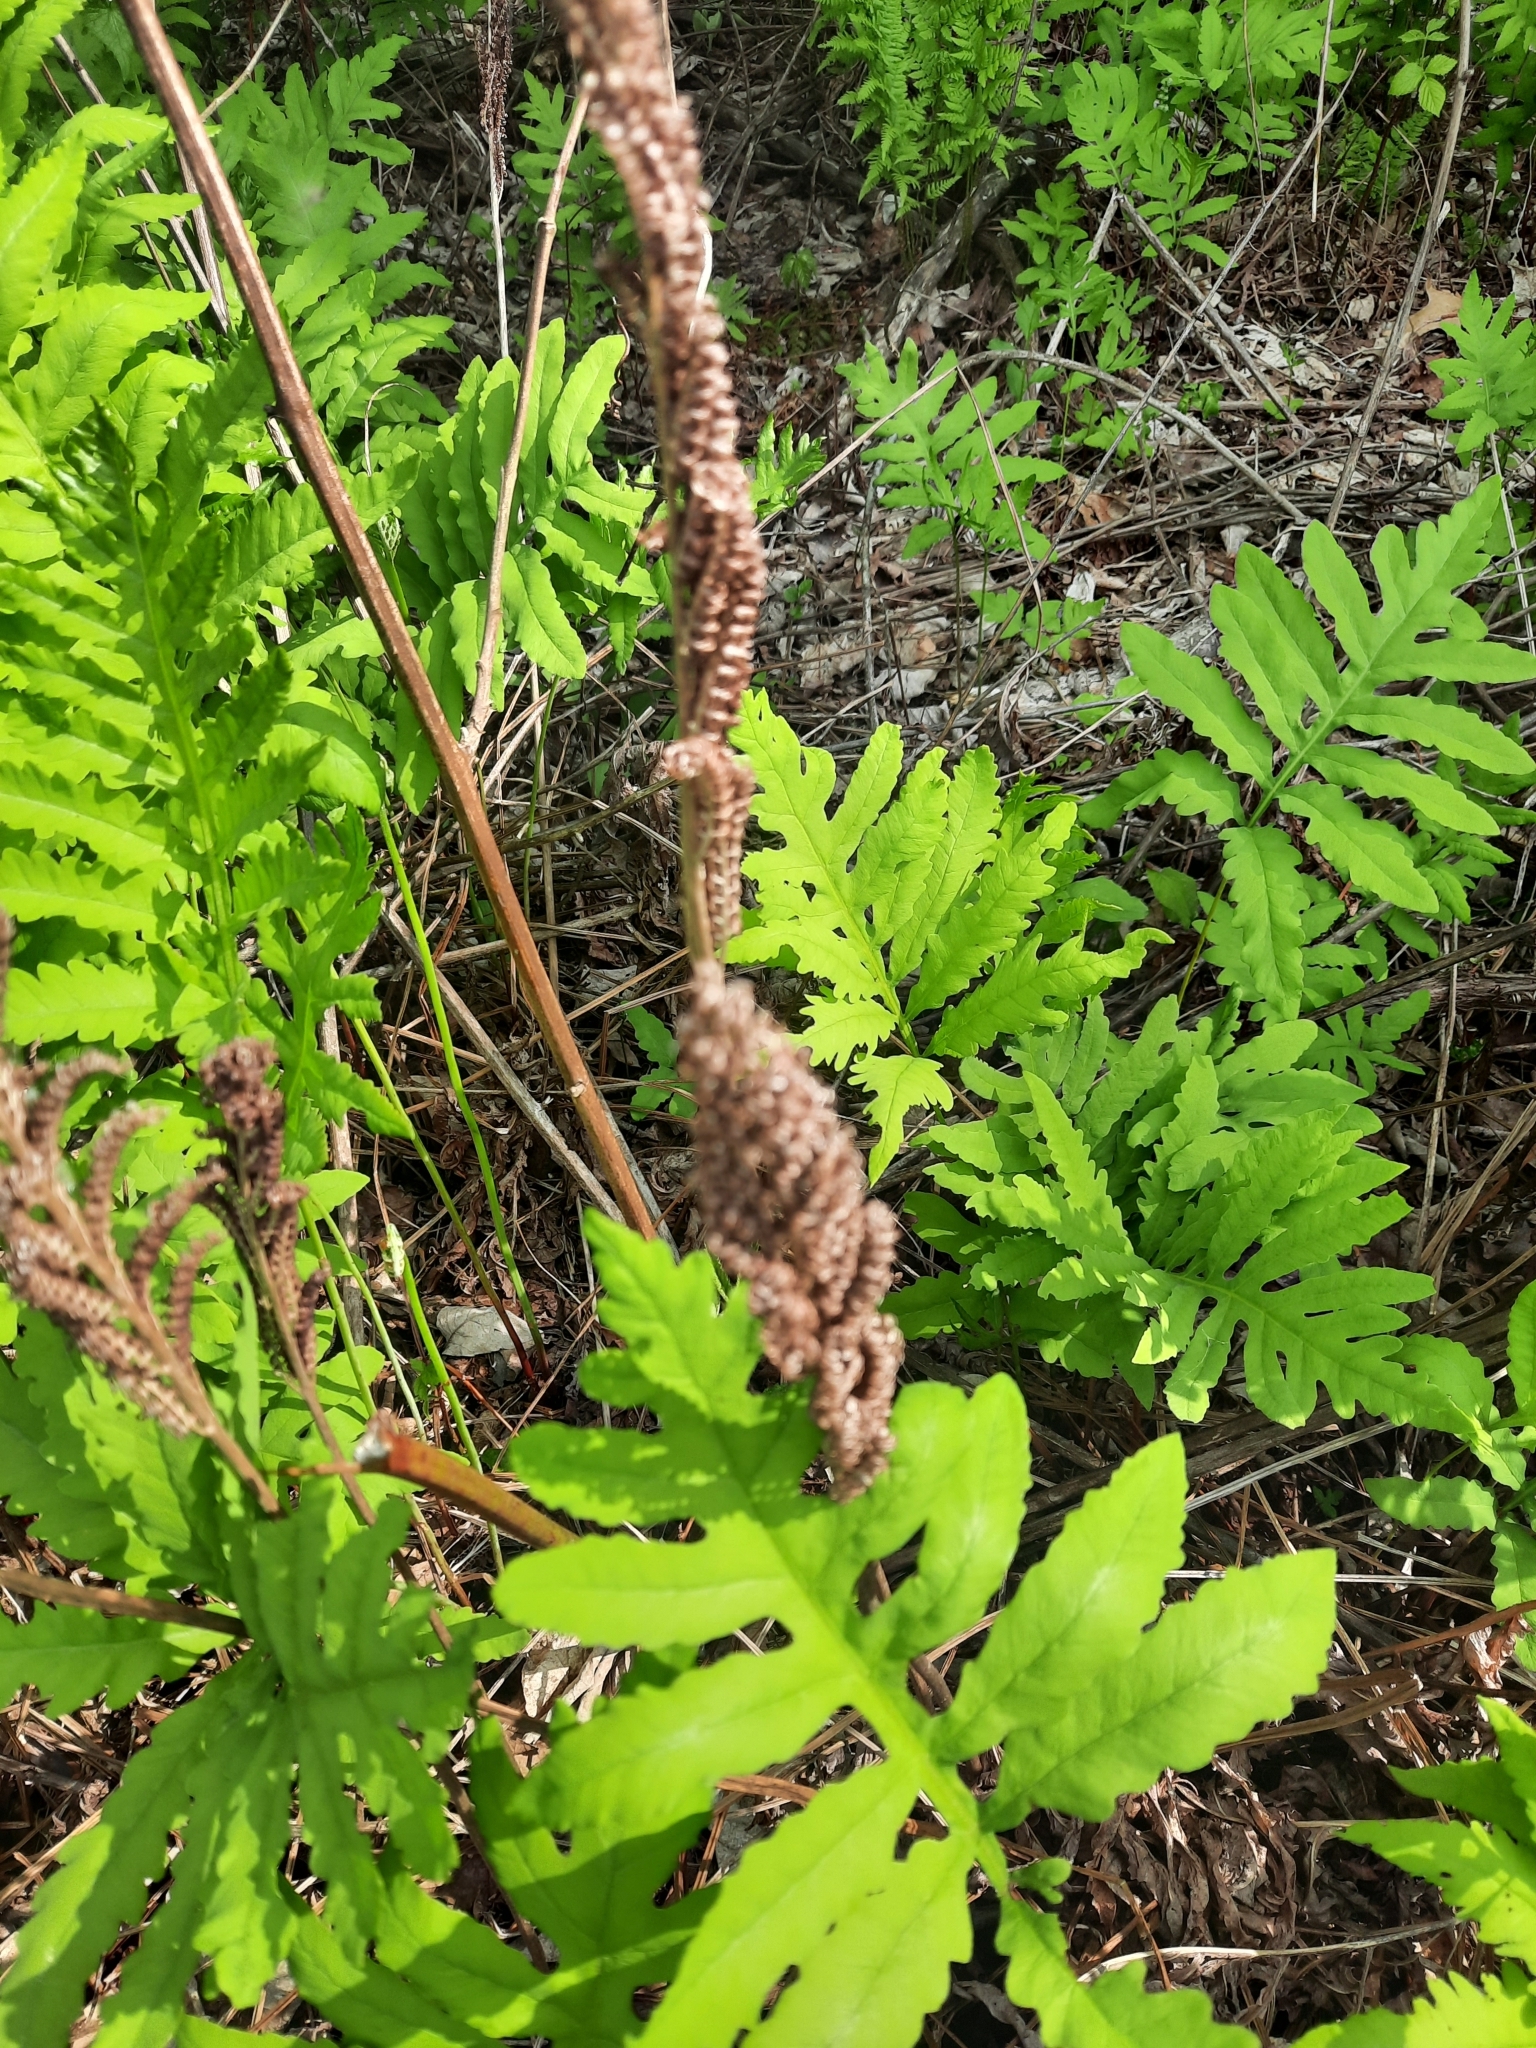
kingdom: Plantae
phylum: Tracheophyta
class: Polypodiopsida
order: Polypodiales
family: Onocleaceae
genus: Onoclea
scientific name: Onoclea sensibilis
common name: Sensitive fern
